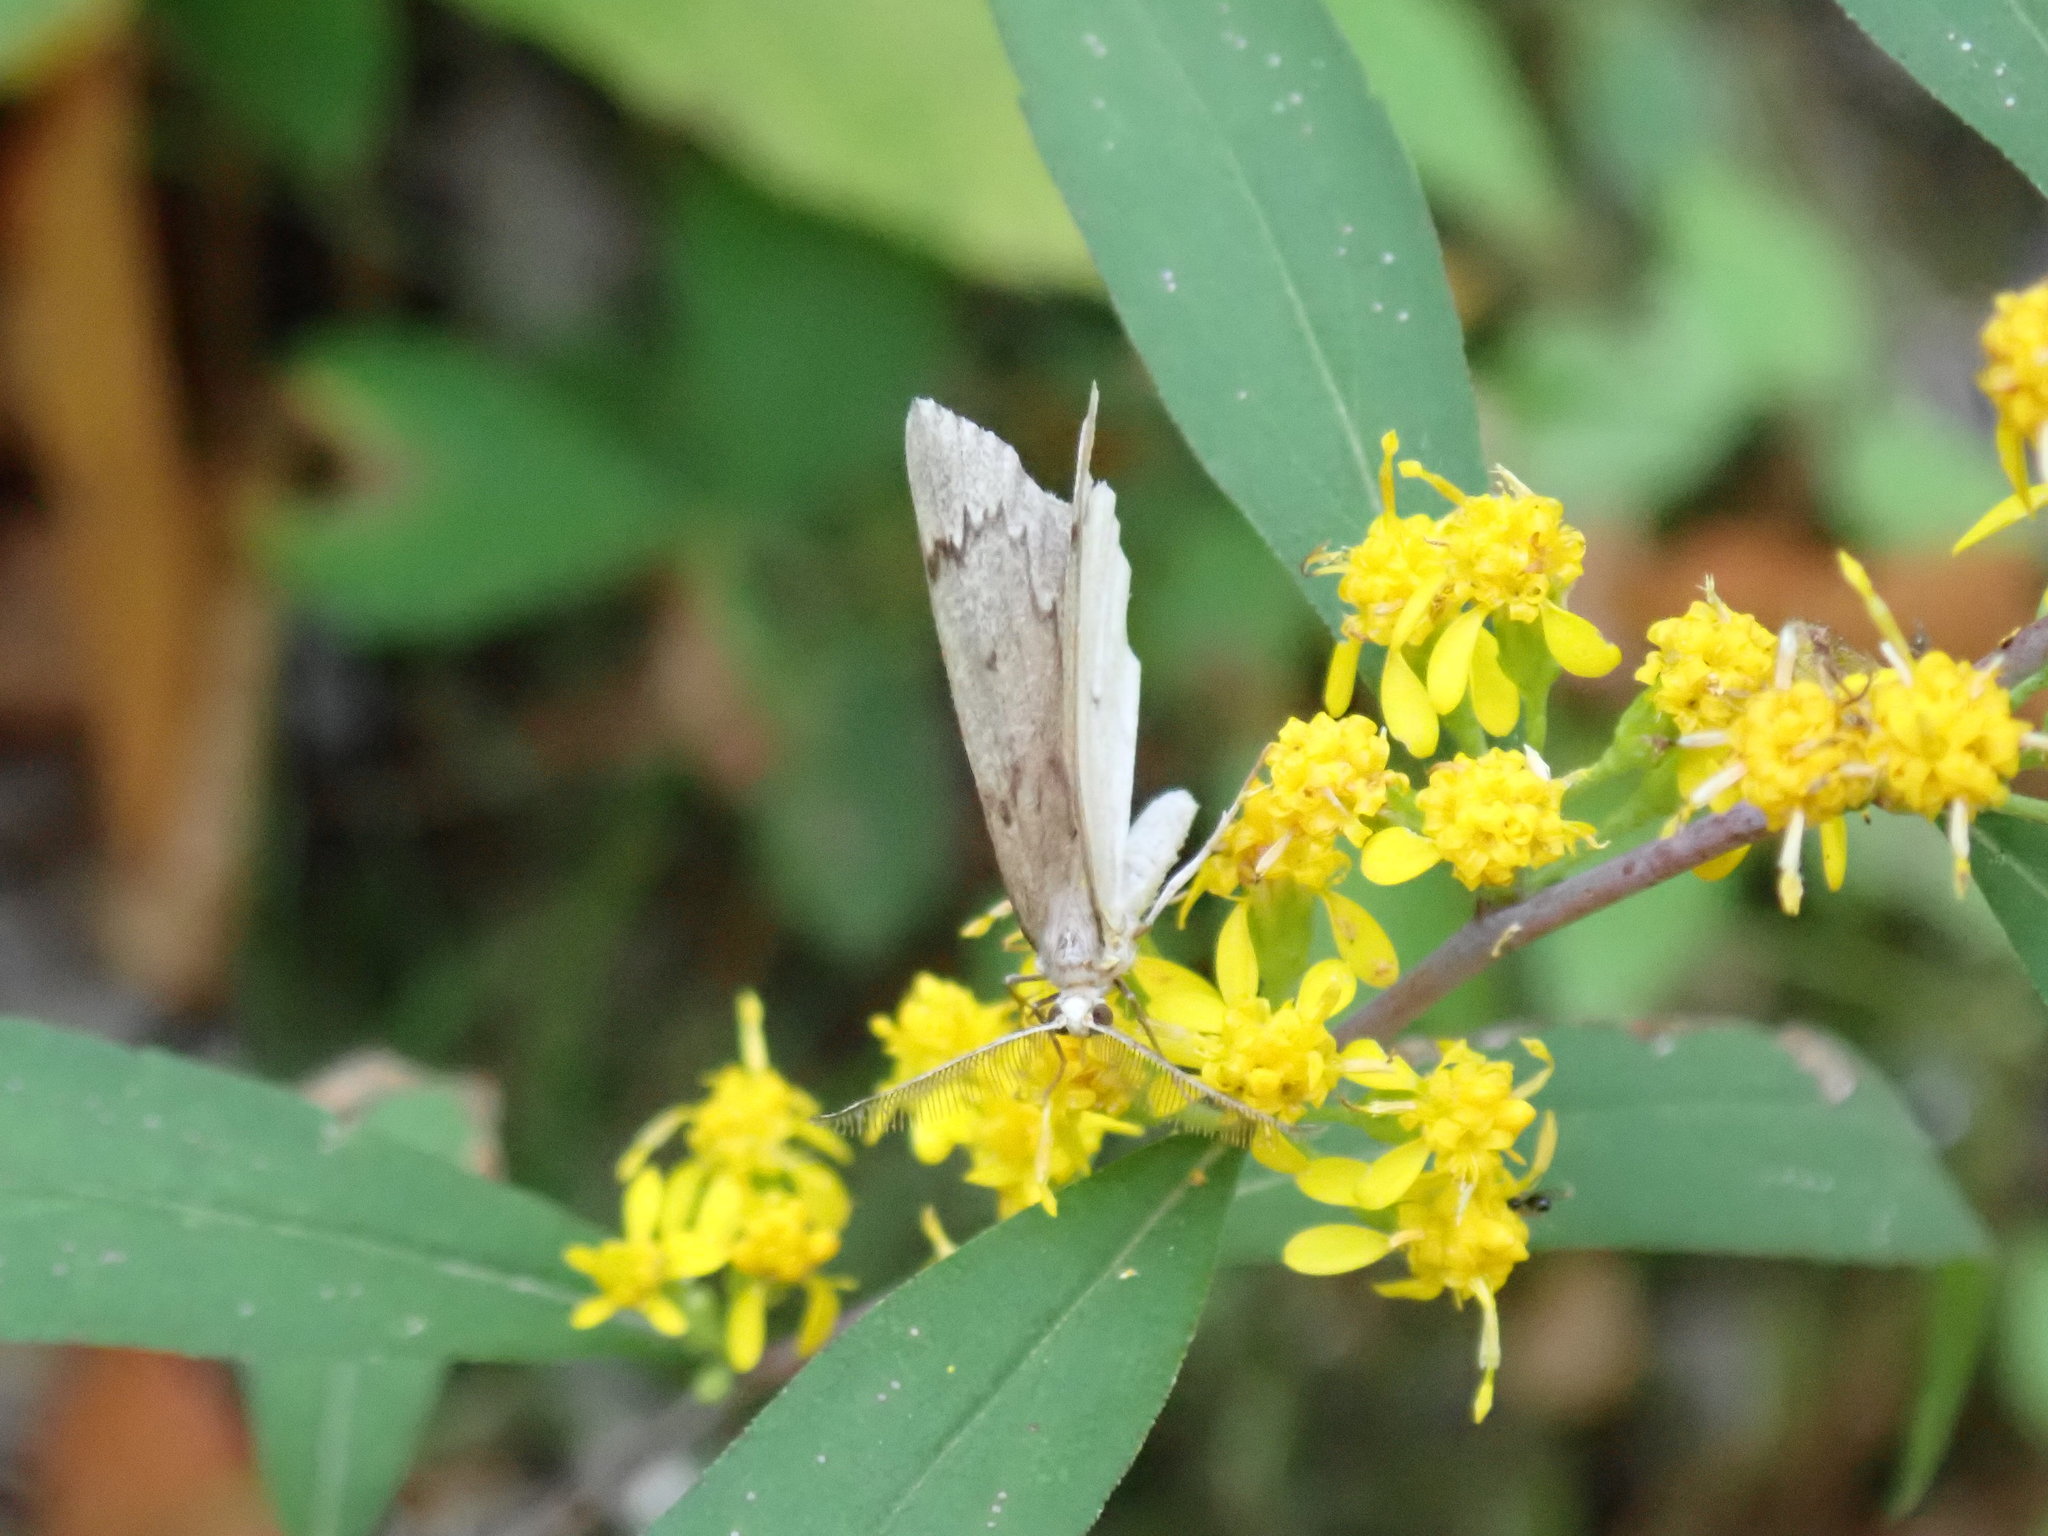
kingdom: Animalia
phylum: Arthropoda
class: Insecta
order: Lepidoptera
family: Geometridae
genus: Nepytia
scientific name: Nepytia canosaria
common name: False hemlock looper
